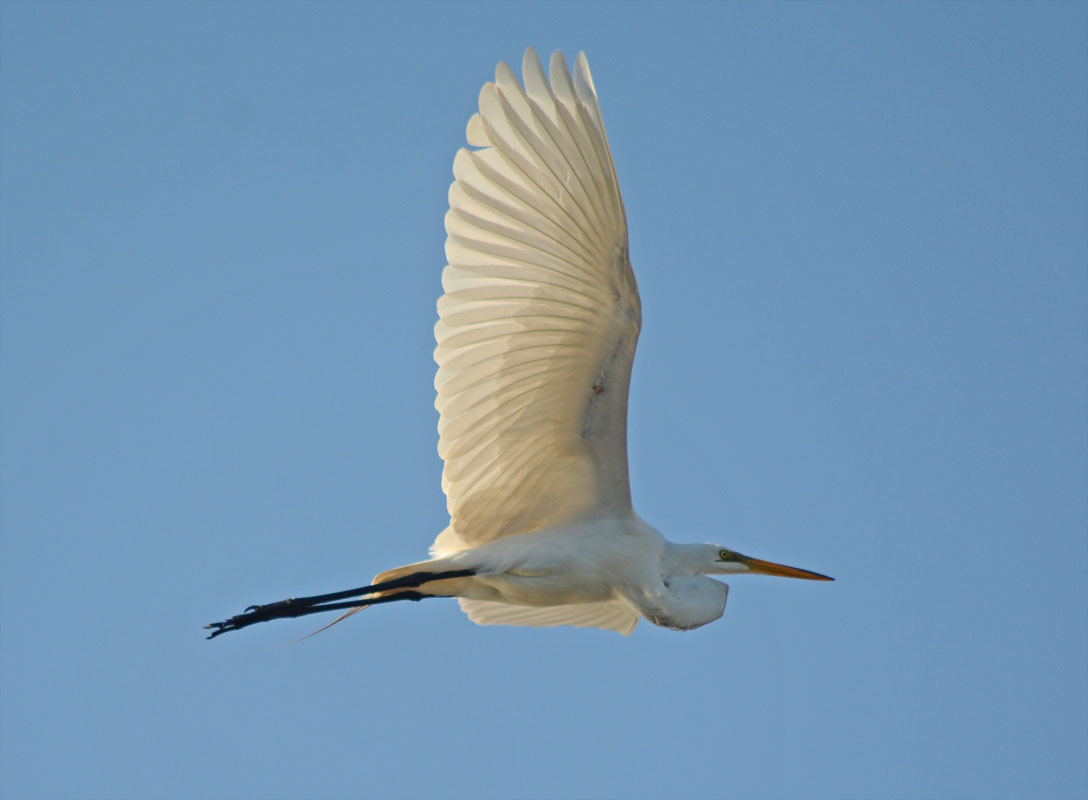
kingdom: Animalia
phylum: Chordata
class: Aves
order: Pelecaniformes
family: Ardeidae
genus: Ardea
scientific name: Ardea alba
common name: Great egret
